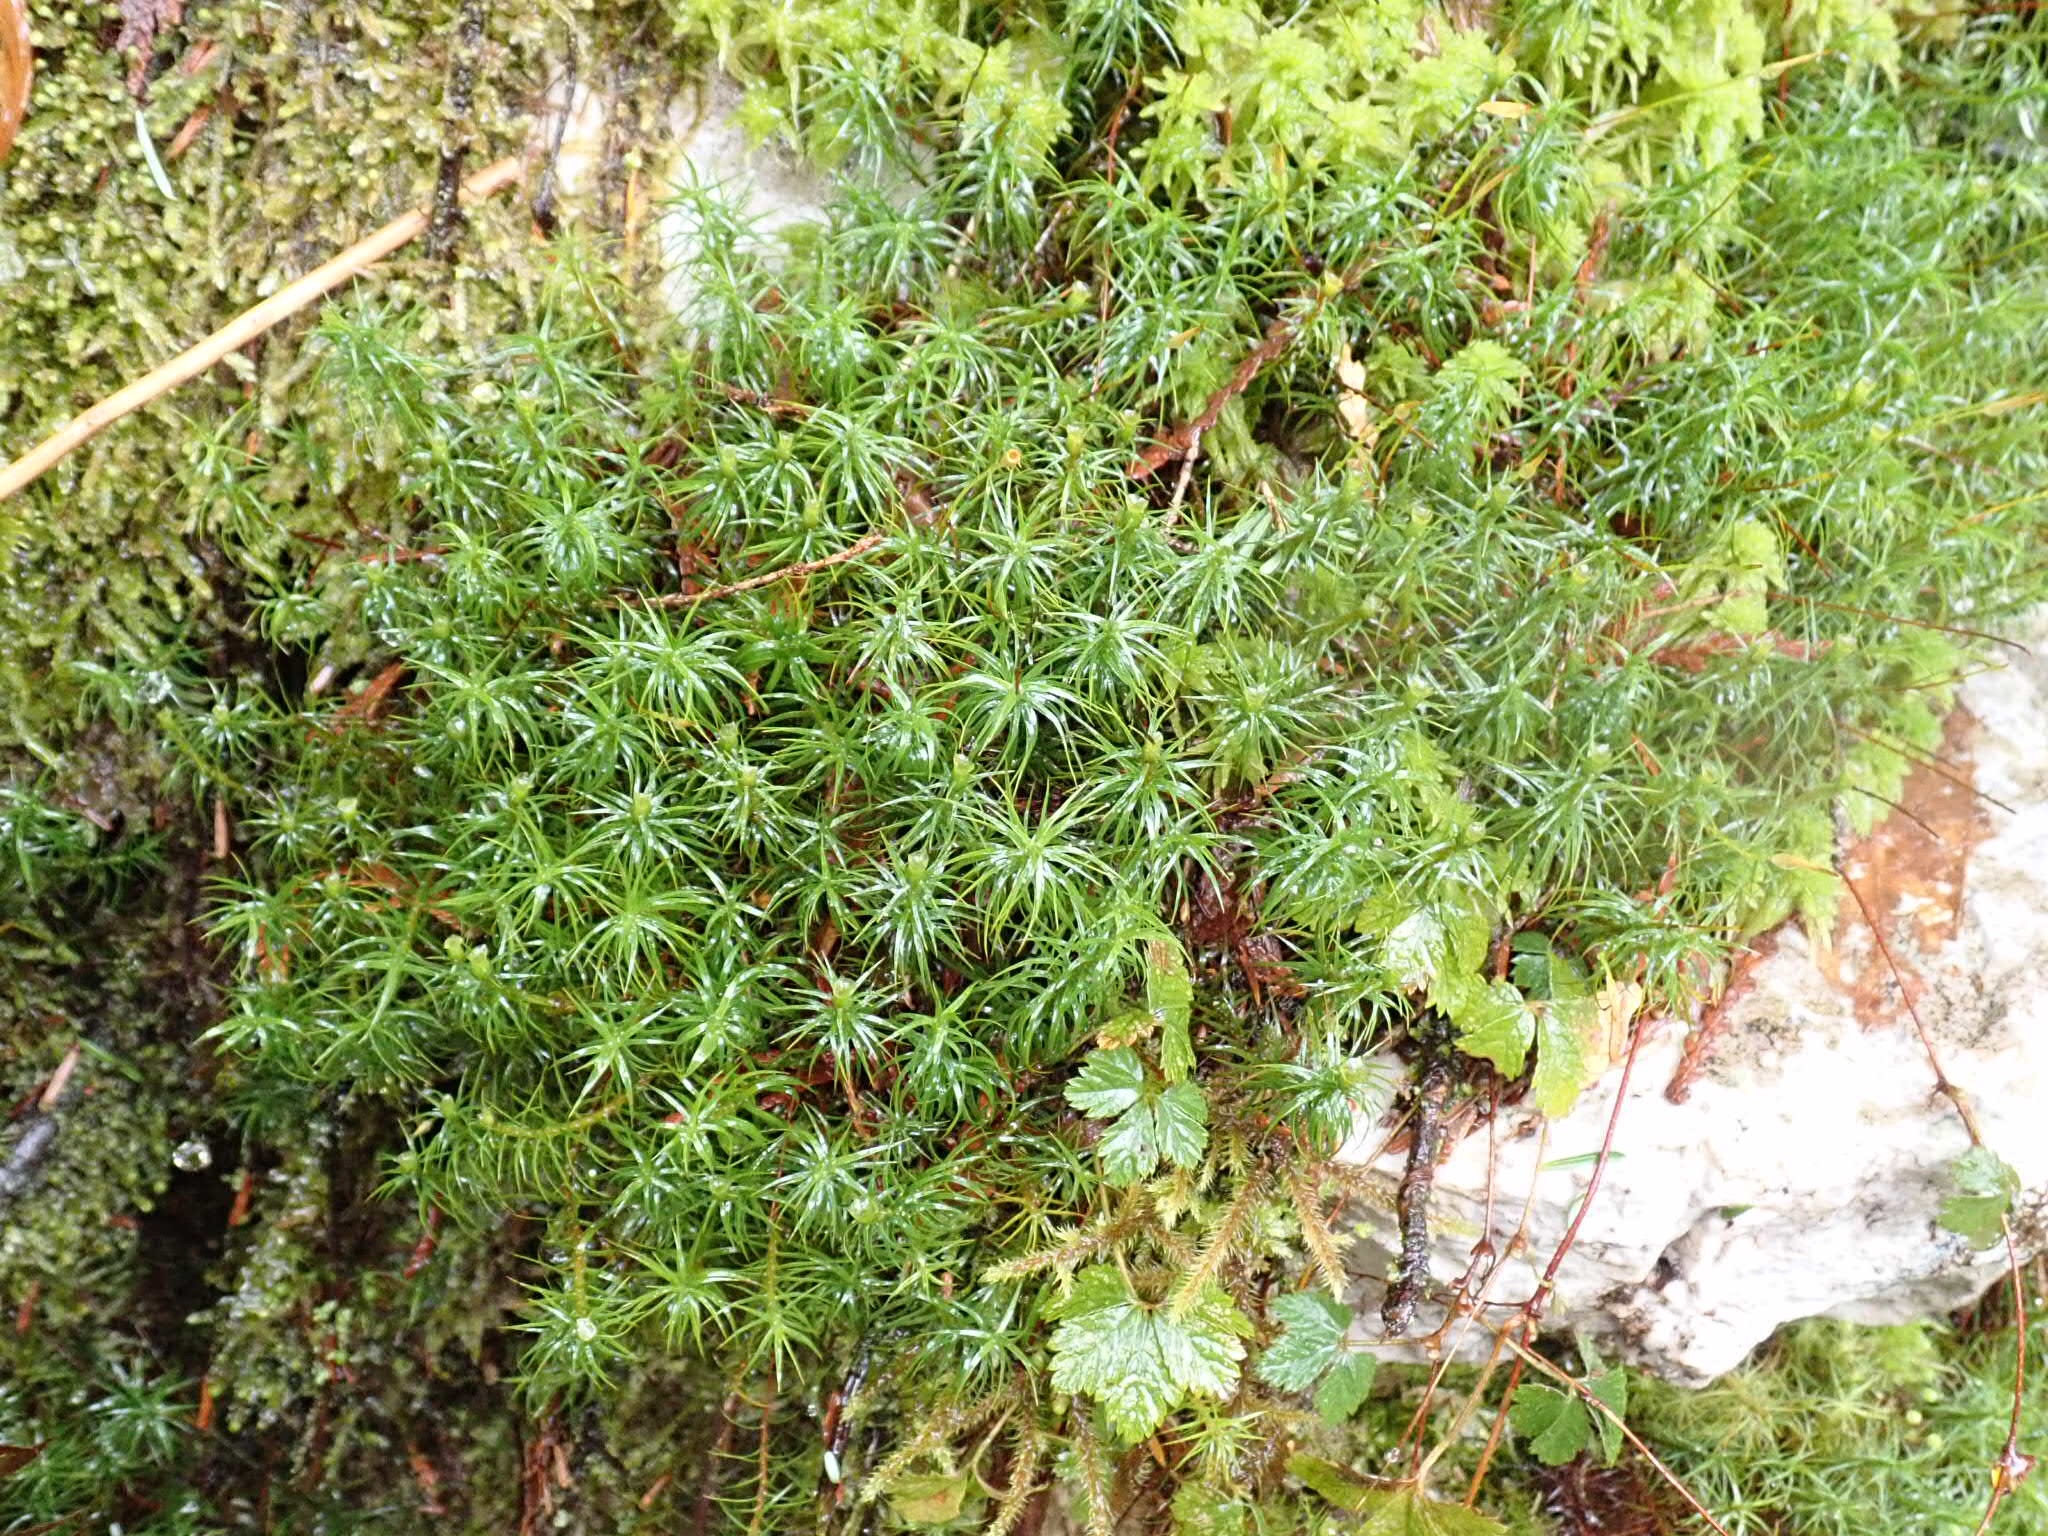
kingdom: Plantae
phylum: Bryophyta
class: Polytrichopsida
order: Polytrichales
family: Polytrichaceae
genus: Polytrichum
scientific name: Polytrichum juniperinum
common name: Juniper haircap moss
